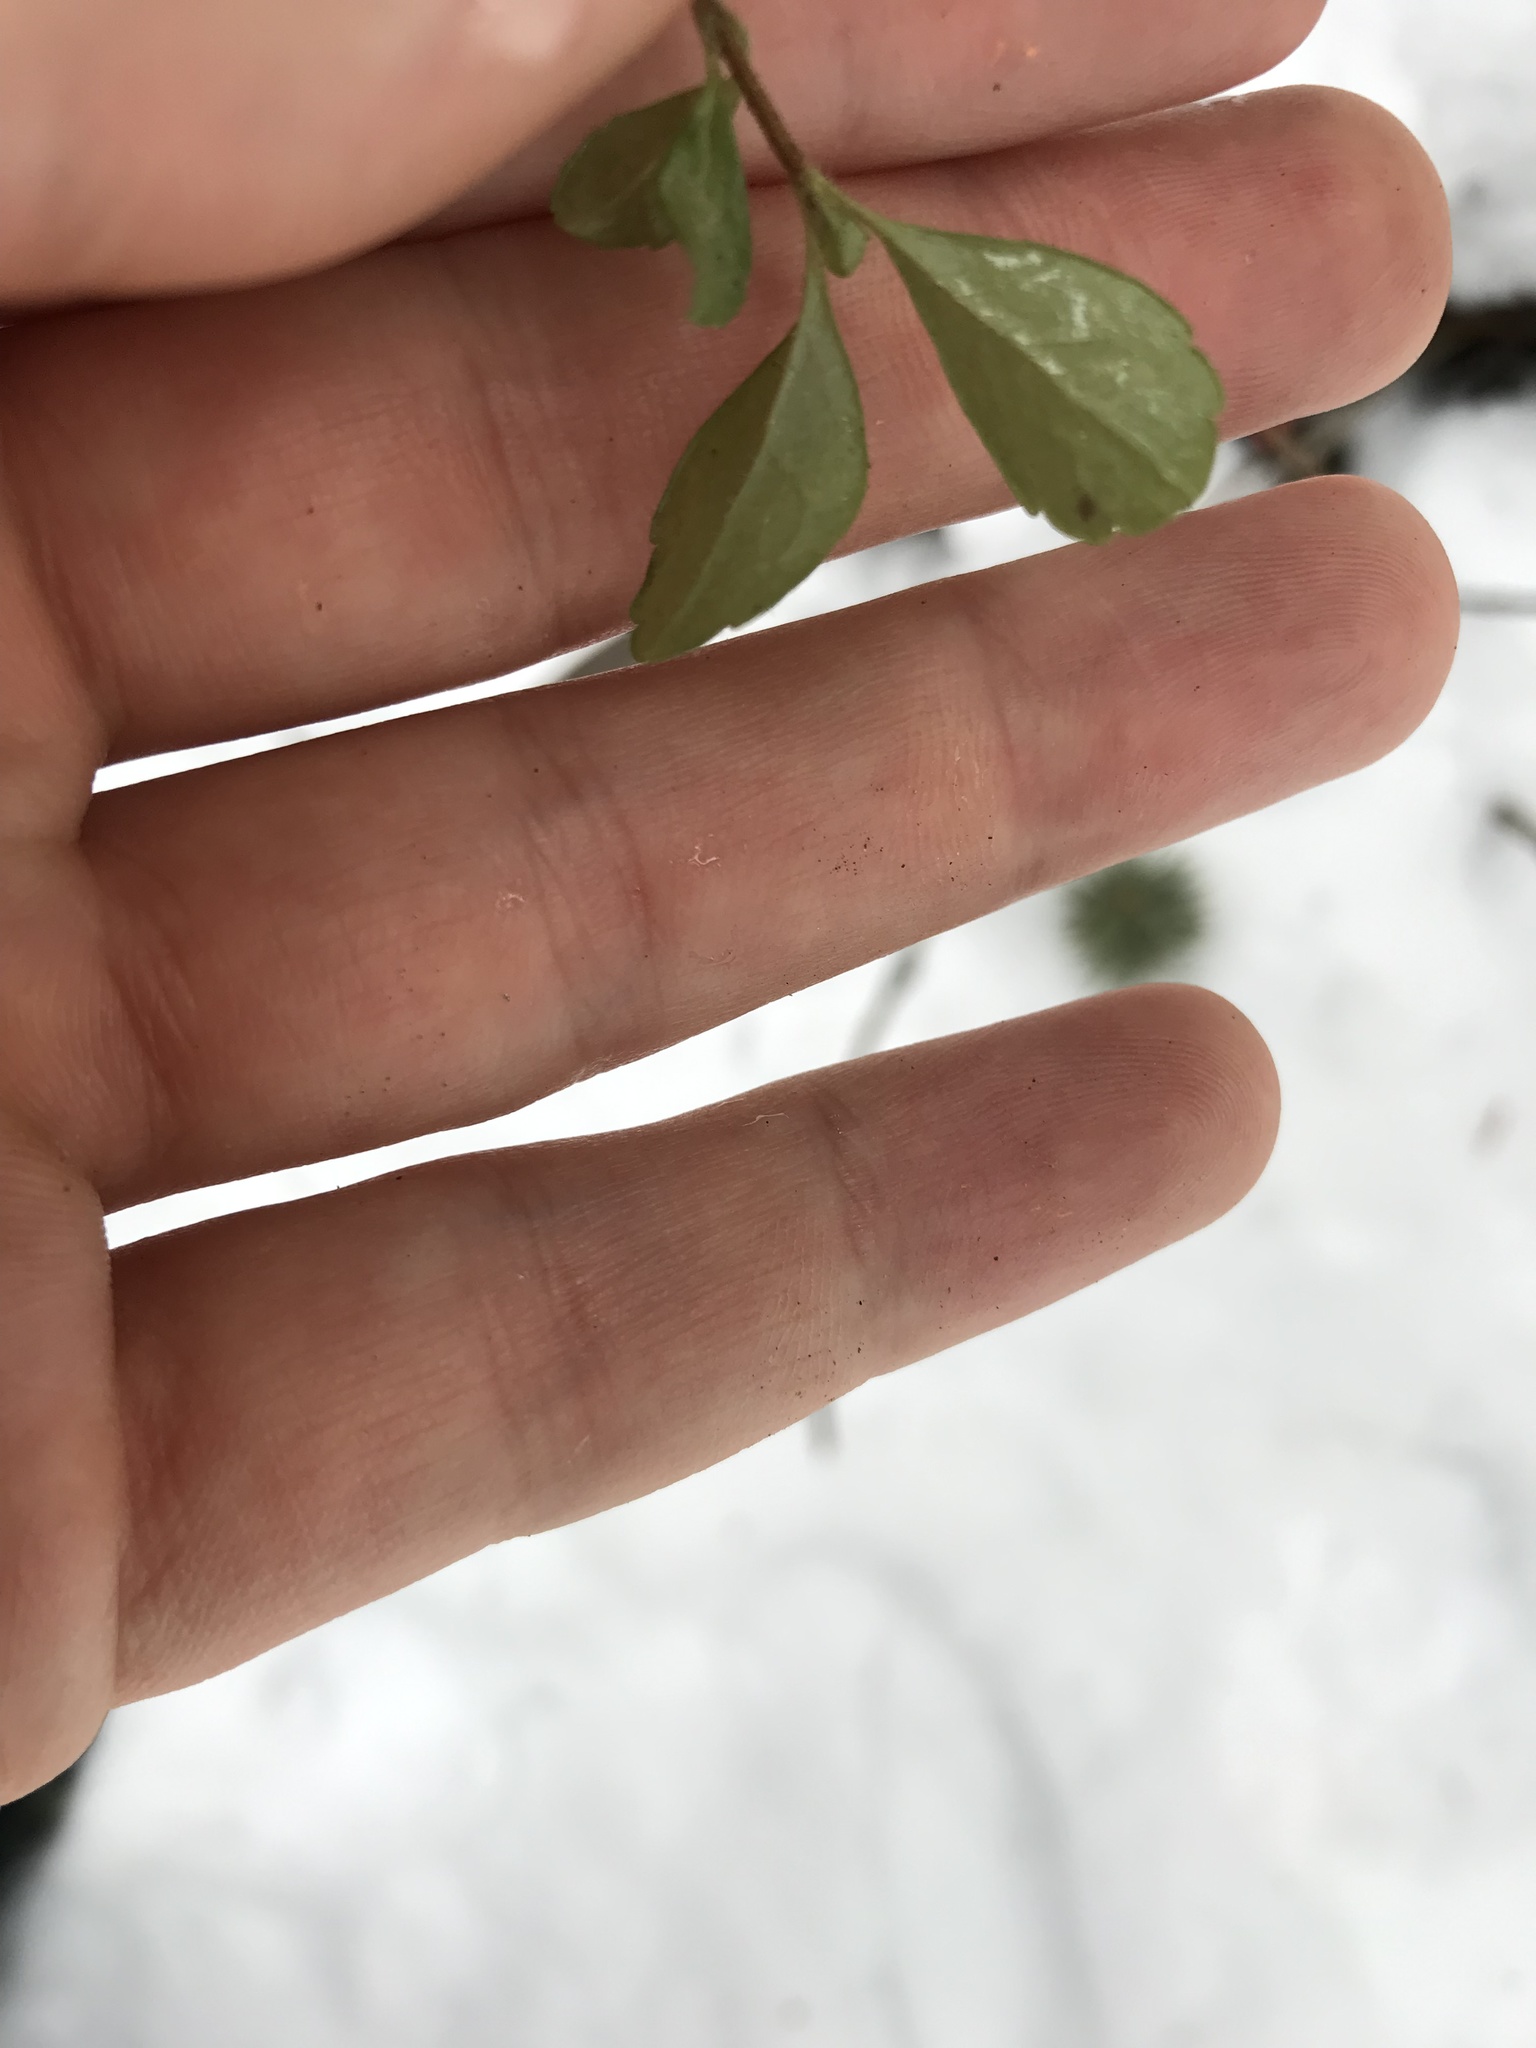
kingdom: Plantae
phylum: Tracheophyta
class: Magnoliopsida
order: Dipsacales
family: Caprifoliaceae
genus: Linnaea
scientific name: Linnaea borealis
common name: Twinflower
